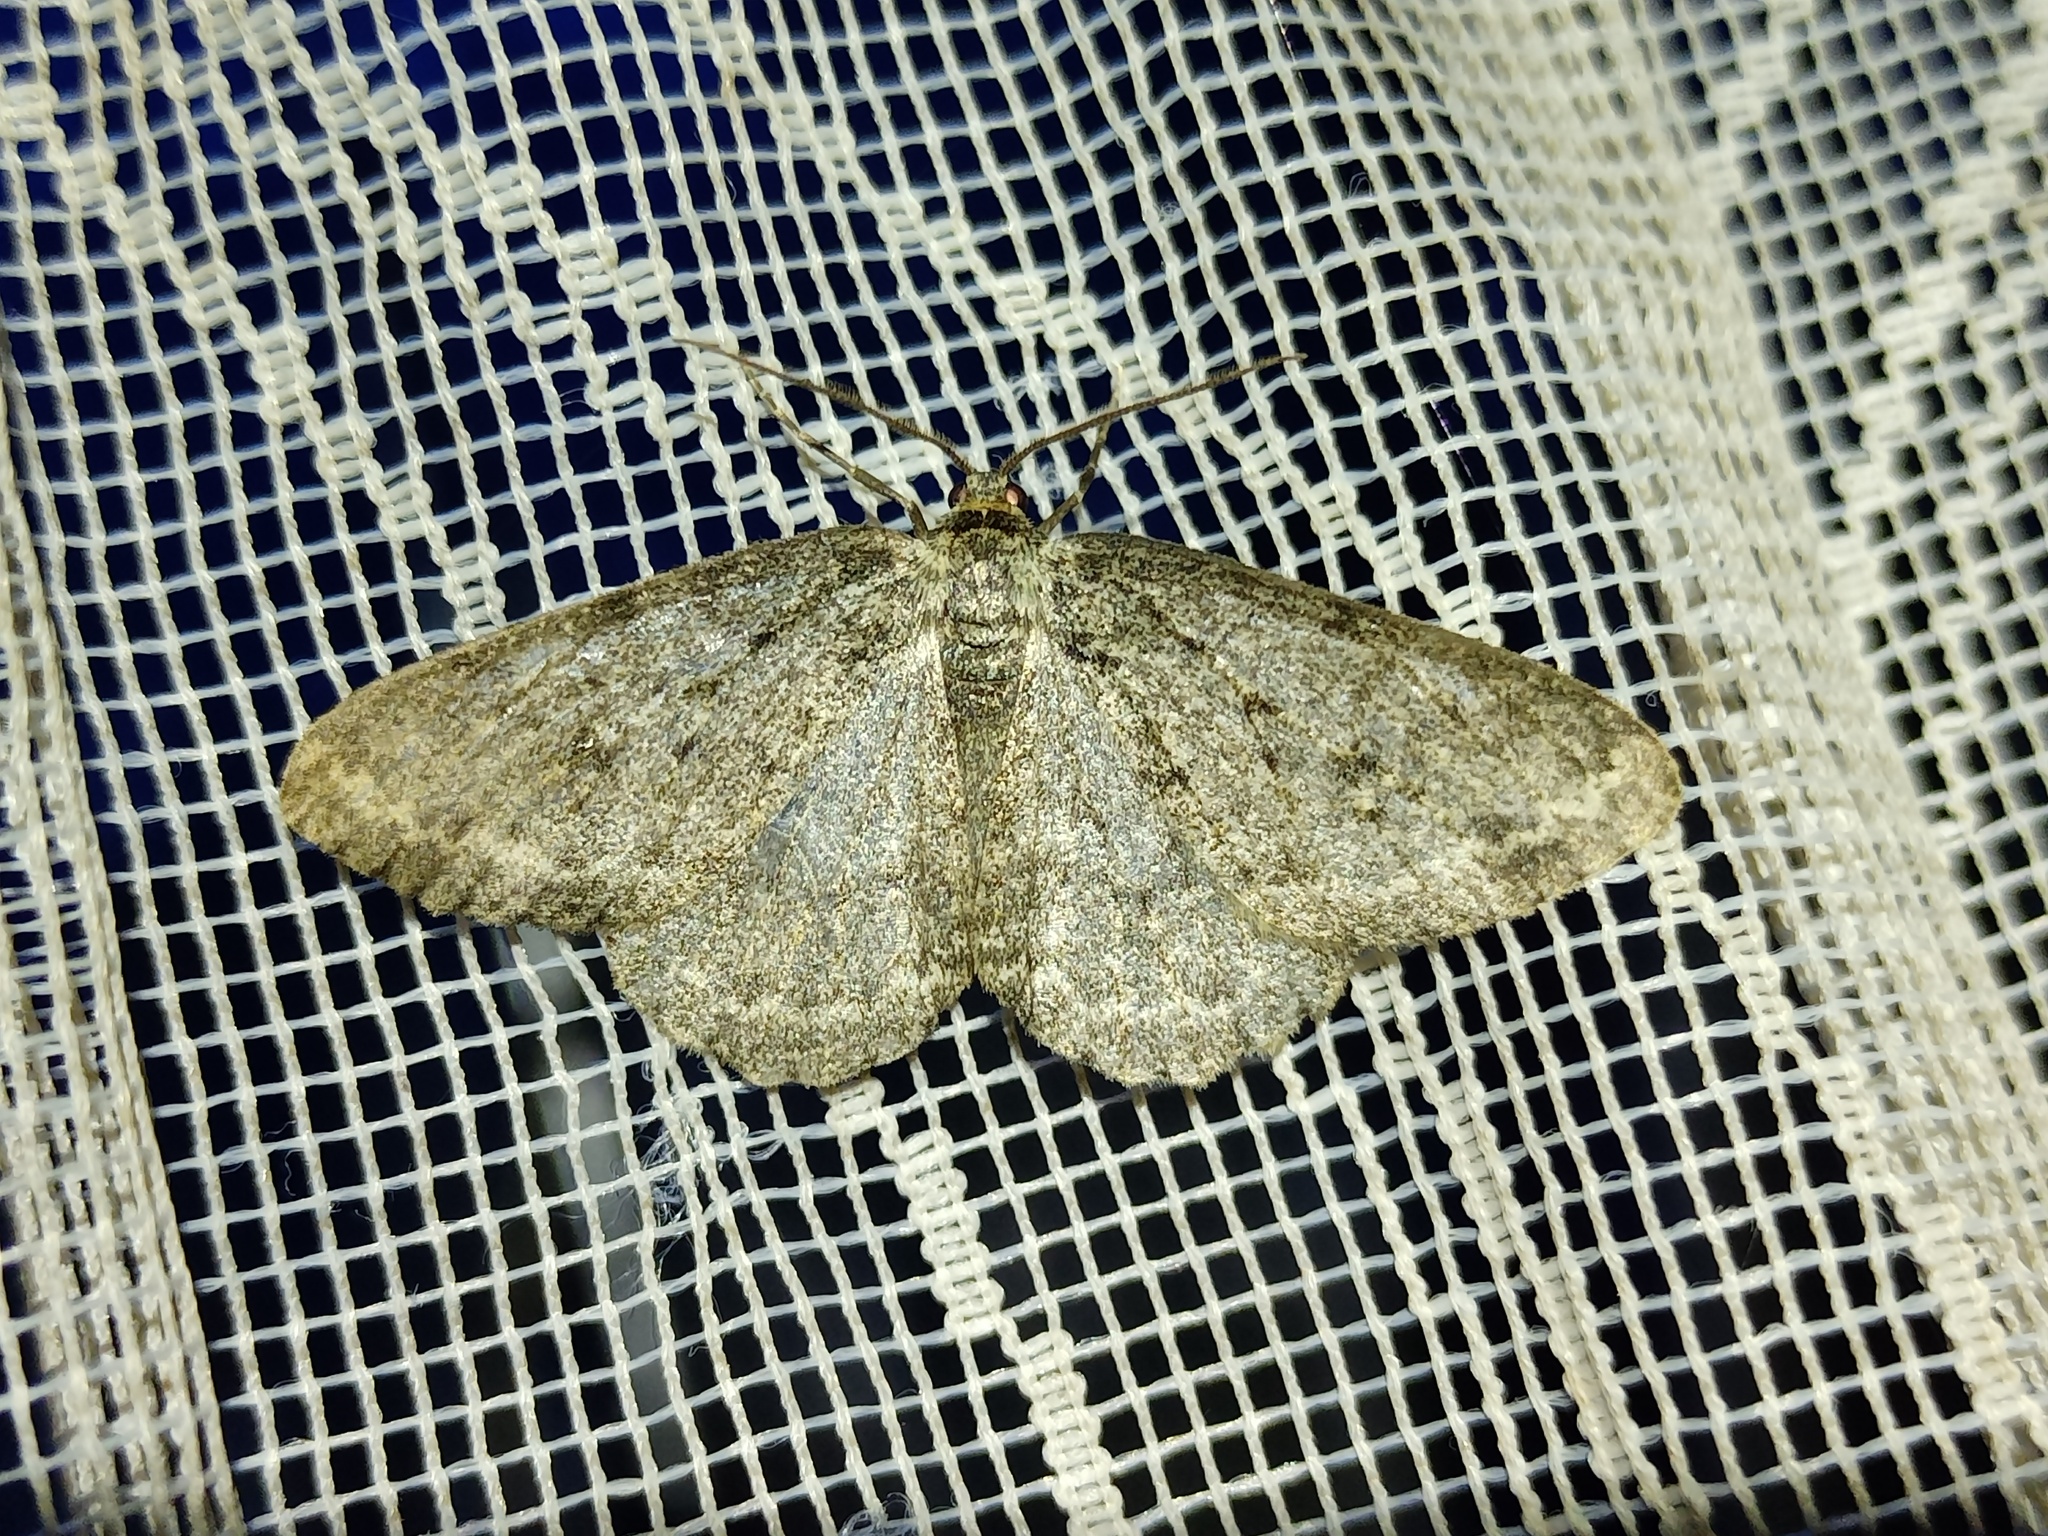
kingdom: Animalia
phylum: Arthropoda
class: Insecta
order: Lepidoptera
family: Geometridae
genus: Ectropis
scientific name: Ectropis crepuscularia
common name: Engrailed
